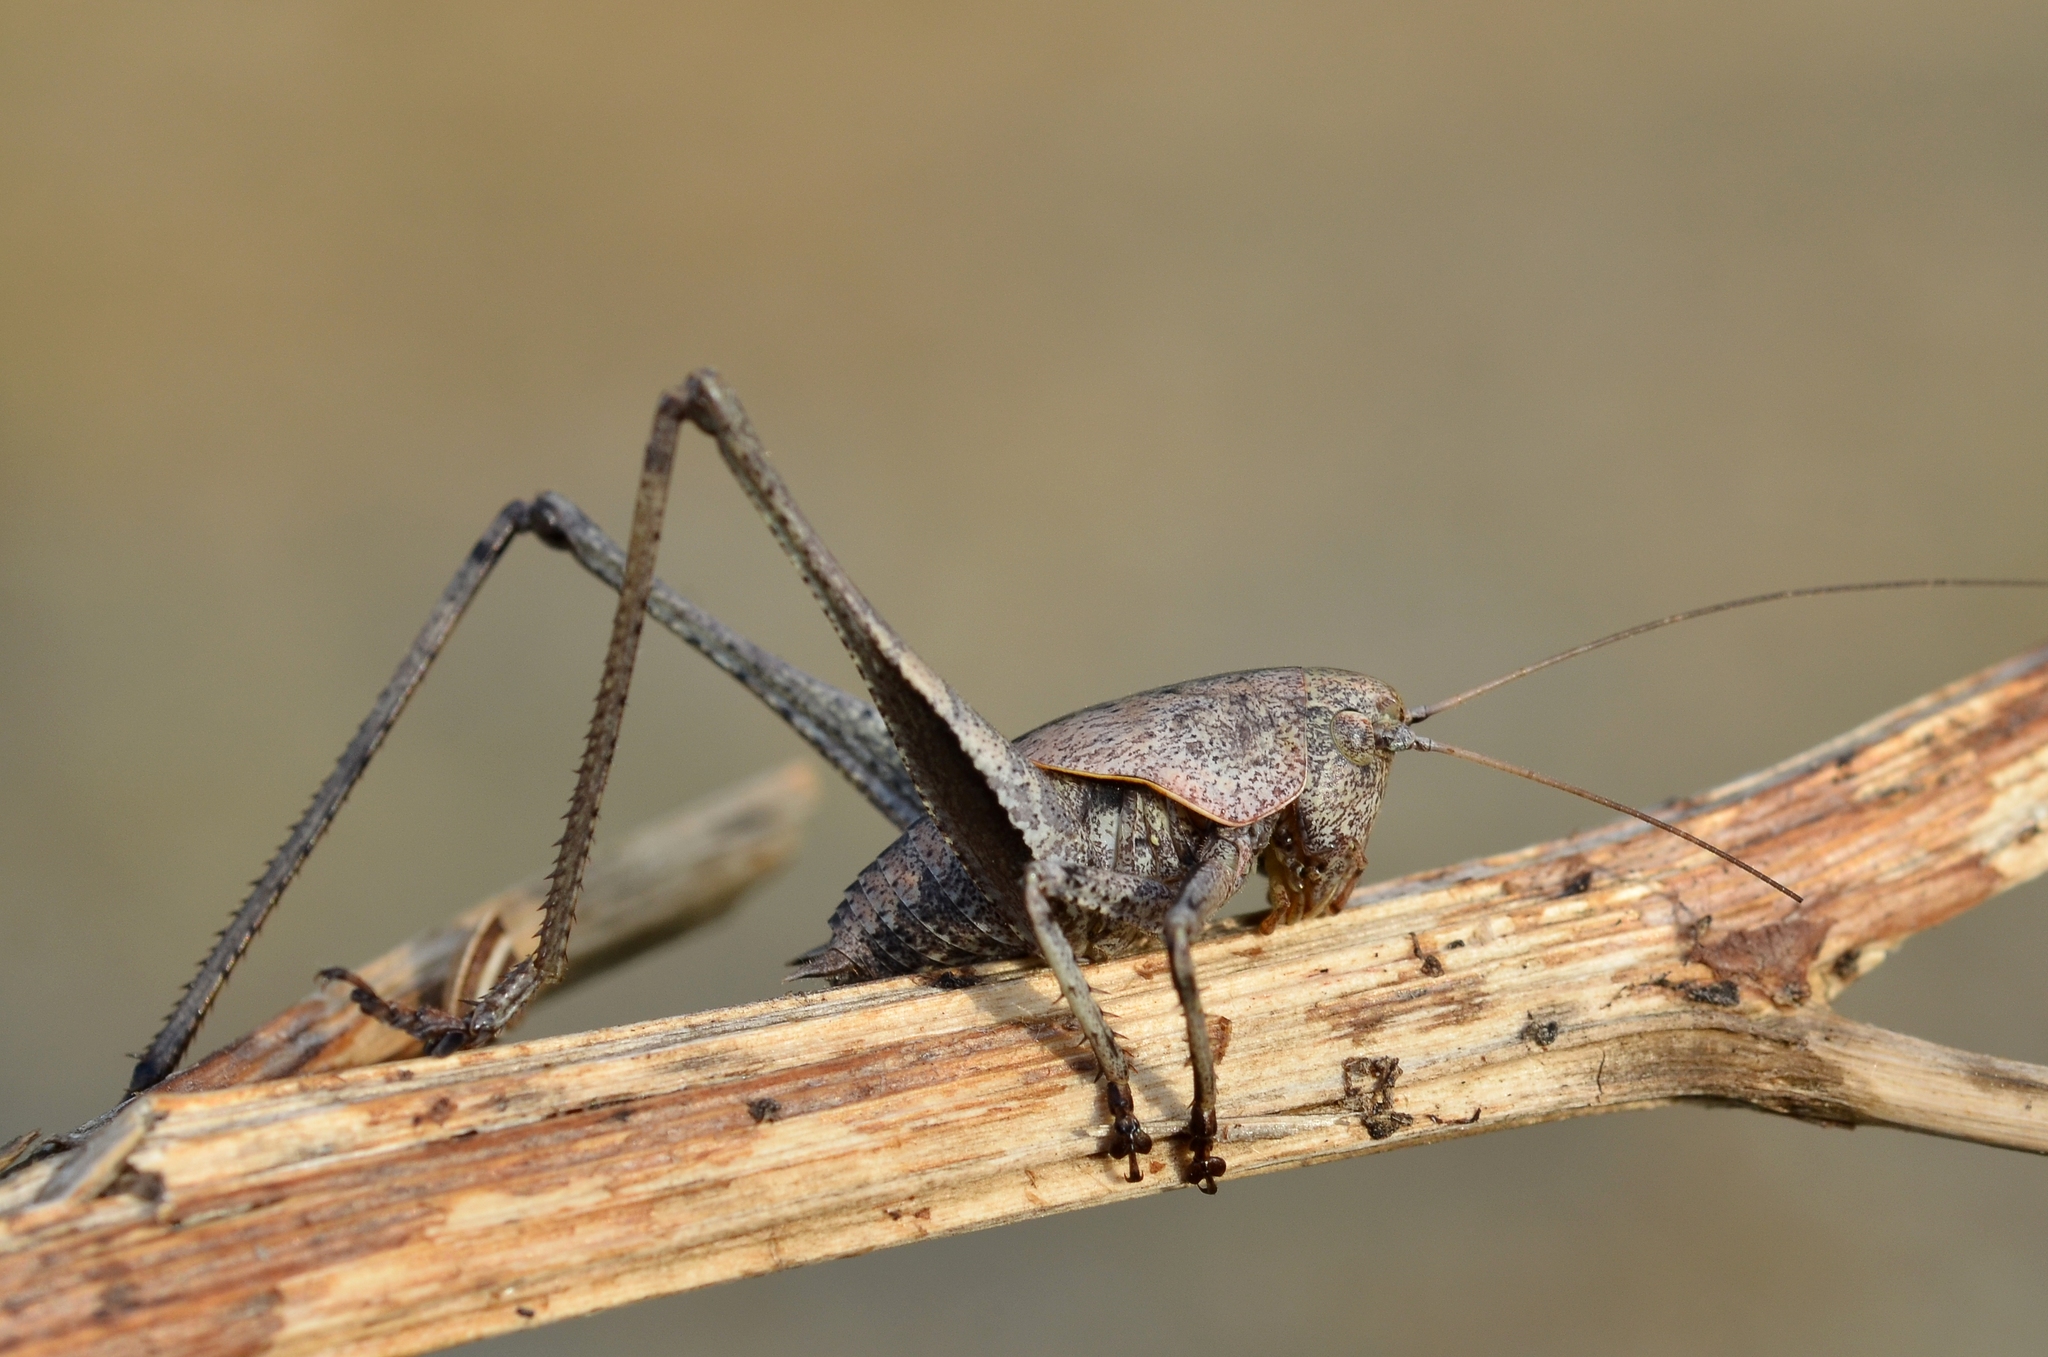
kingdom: Animalia
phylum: Arthropoda
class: Insecta
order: Orthoptera
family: Tettigoniidae
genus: Thyreonotus
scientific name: Thyreonotus corsicus
